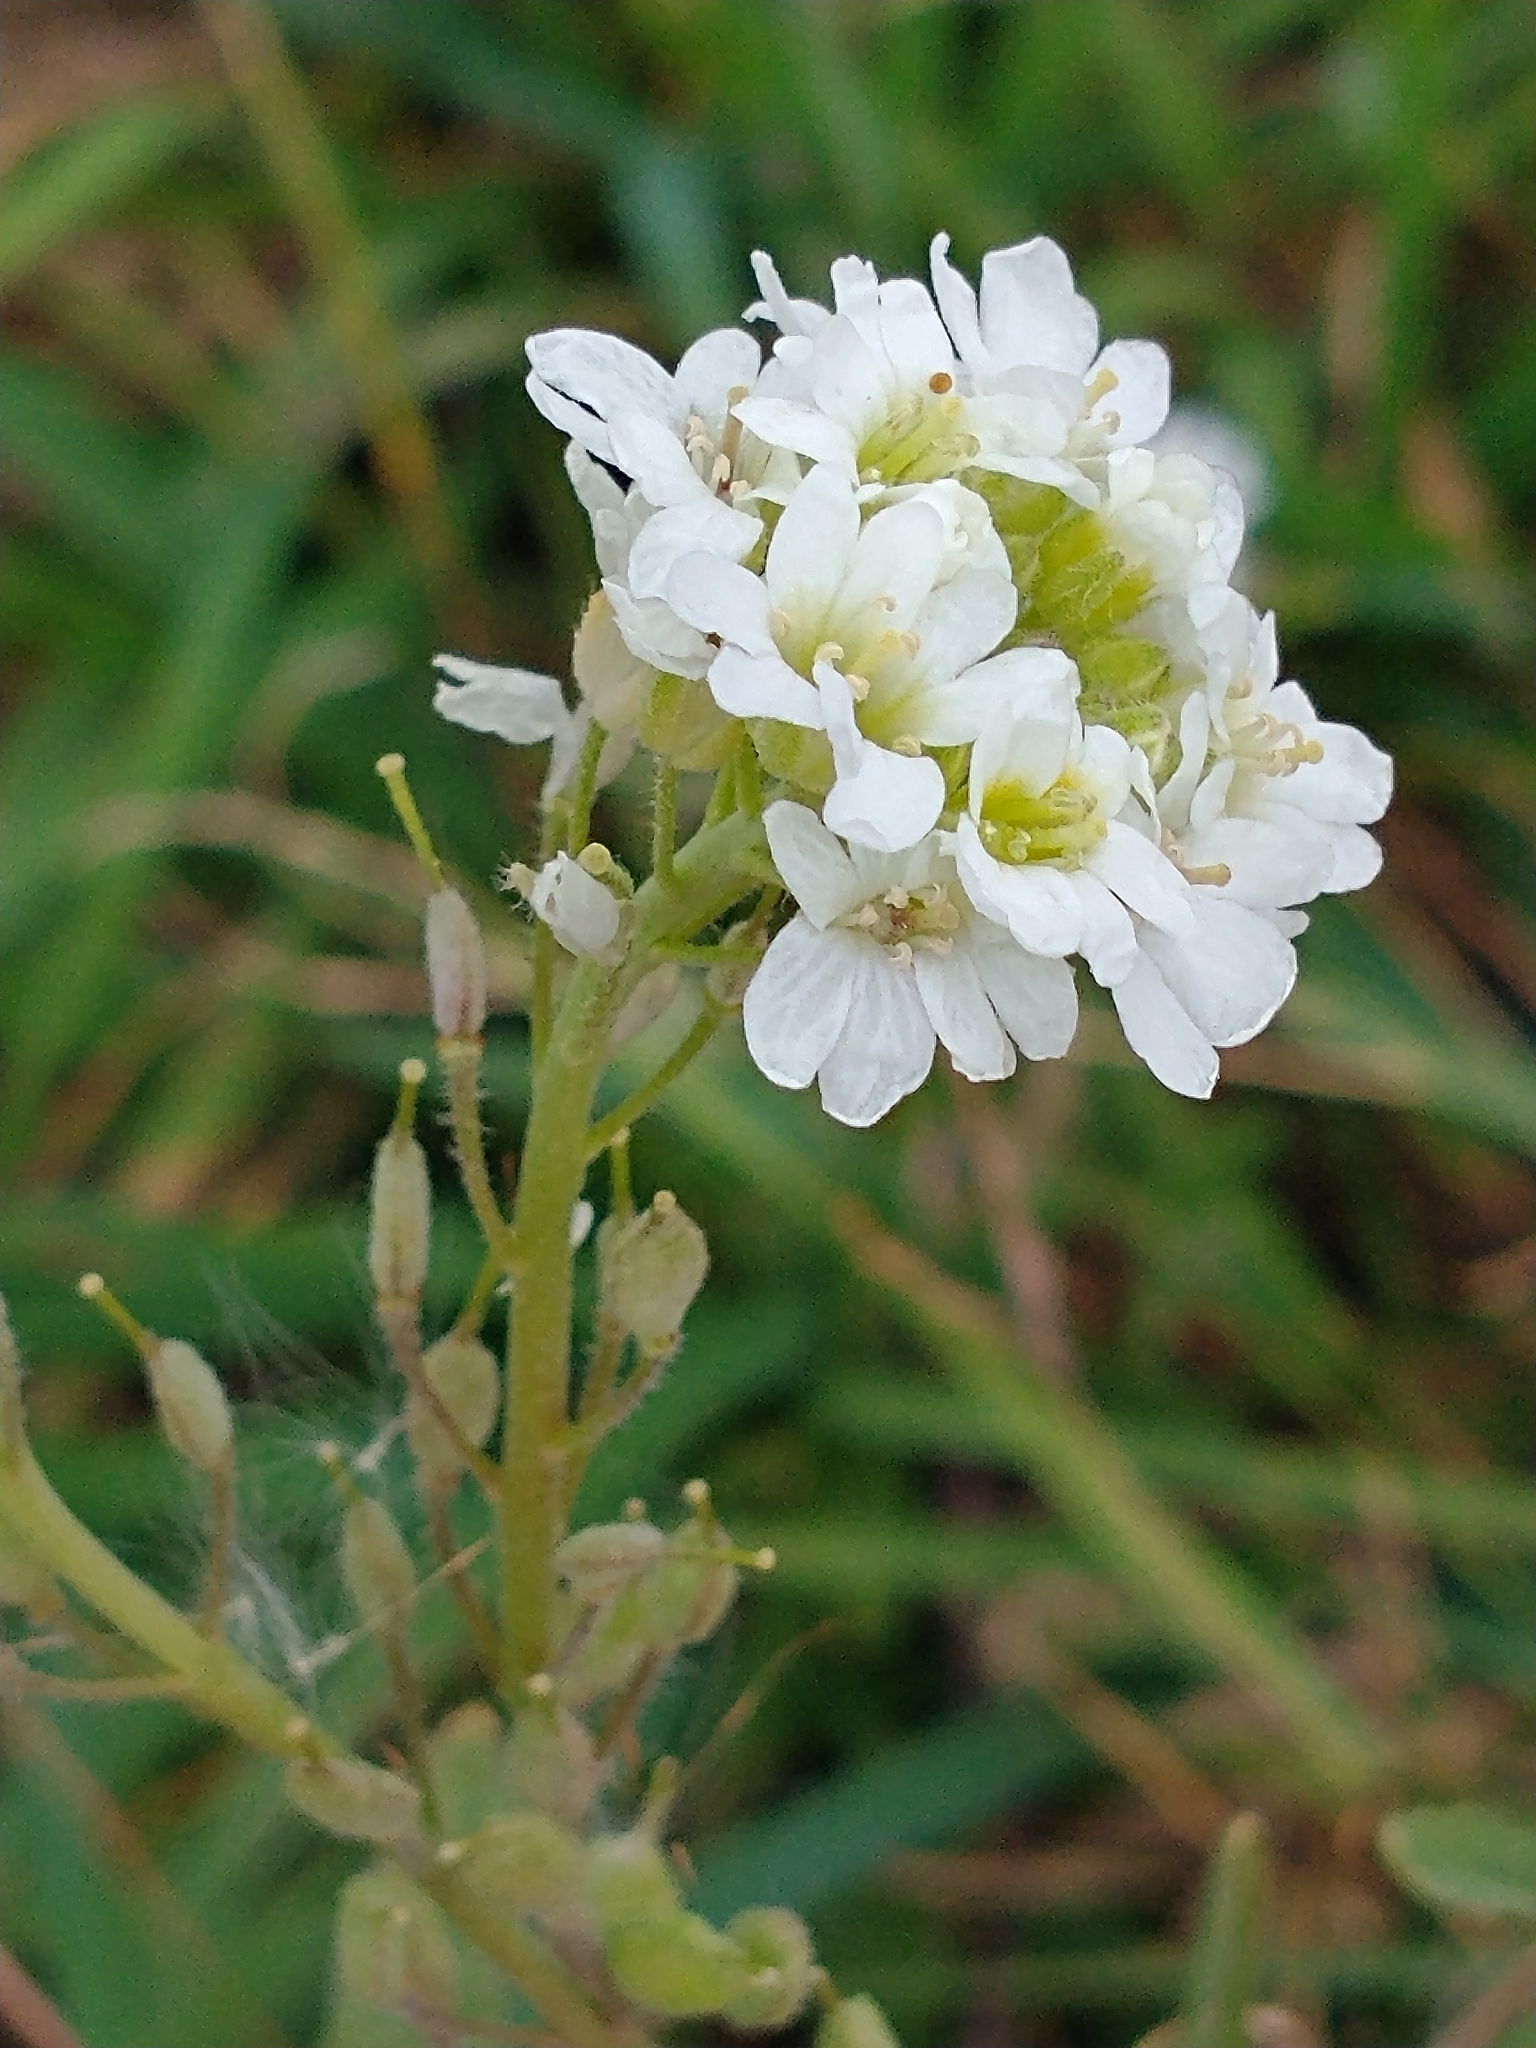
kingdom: Plantae
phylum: Tracheophyta
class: Magnoliopsida
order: Brassicales
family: Brassicaceae
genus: Berteroa
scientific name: Berteroa incana
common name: Hoary alison
